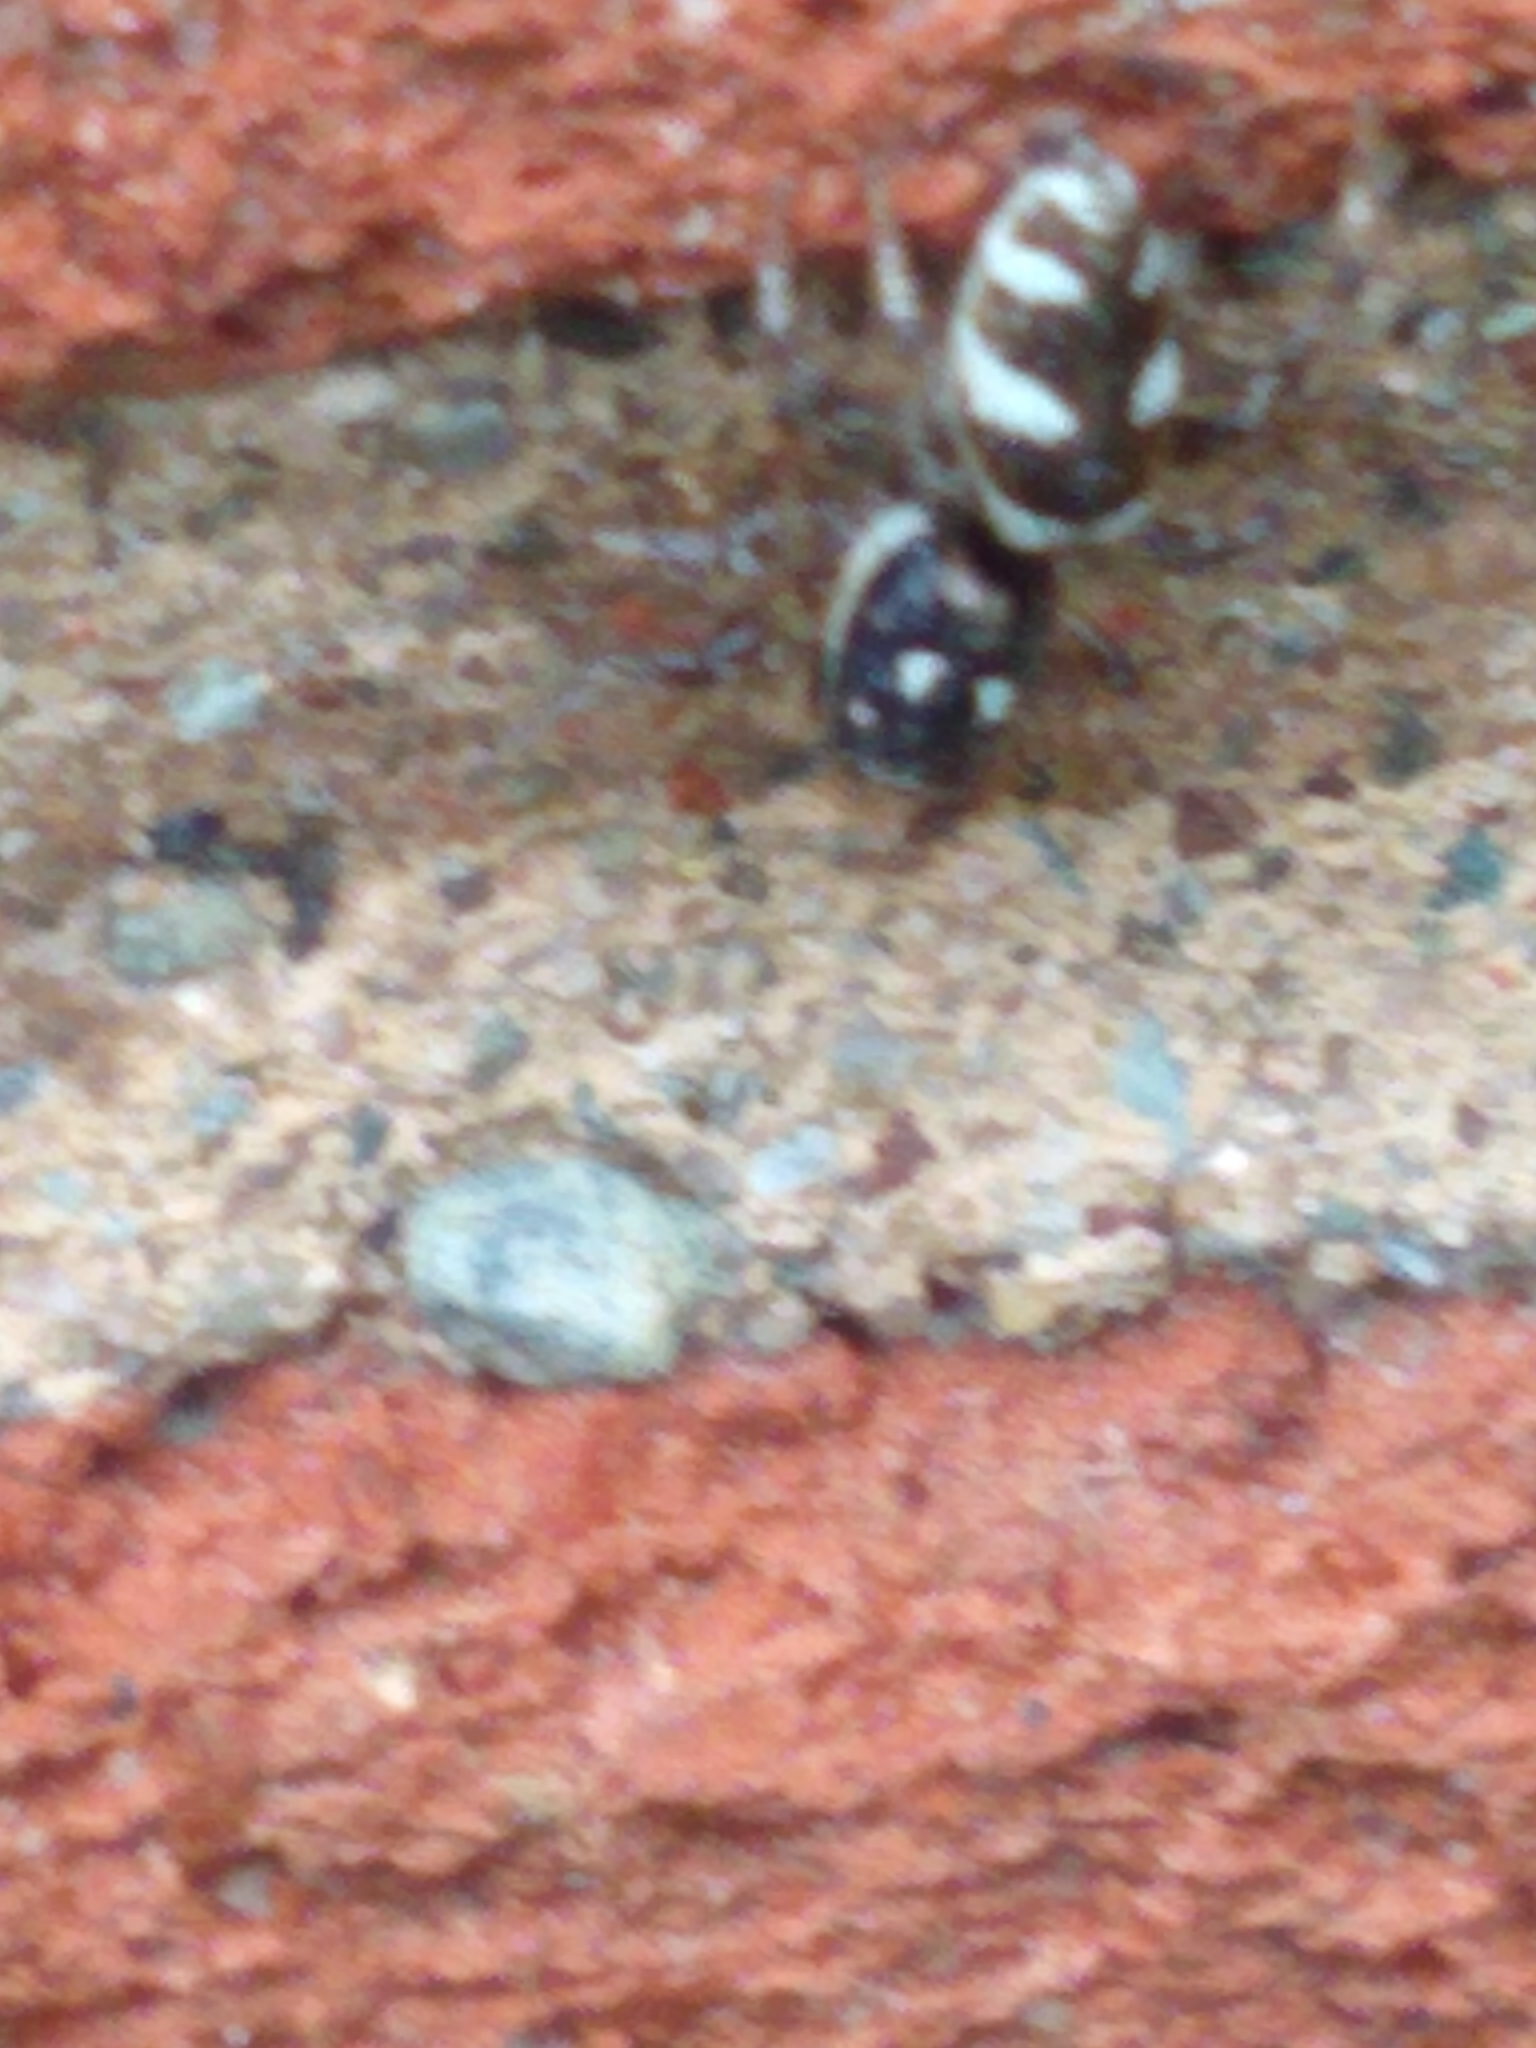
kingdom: Animalia
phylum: Arthropoda
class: Arachnida
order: Araneae
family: Salticidae
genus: Salticus
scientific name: Salticus scenicus
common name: Zebra jumper
